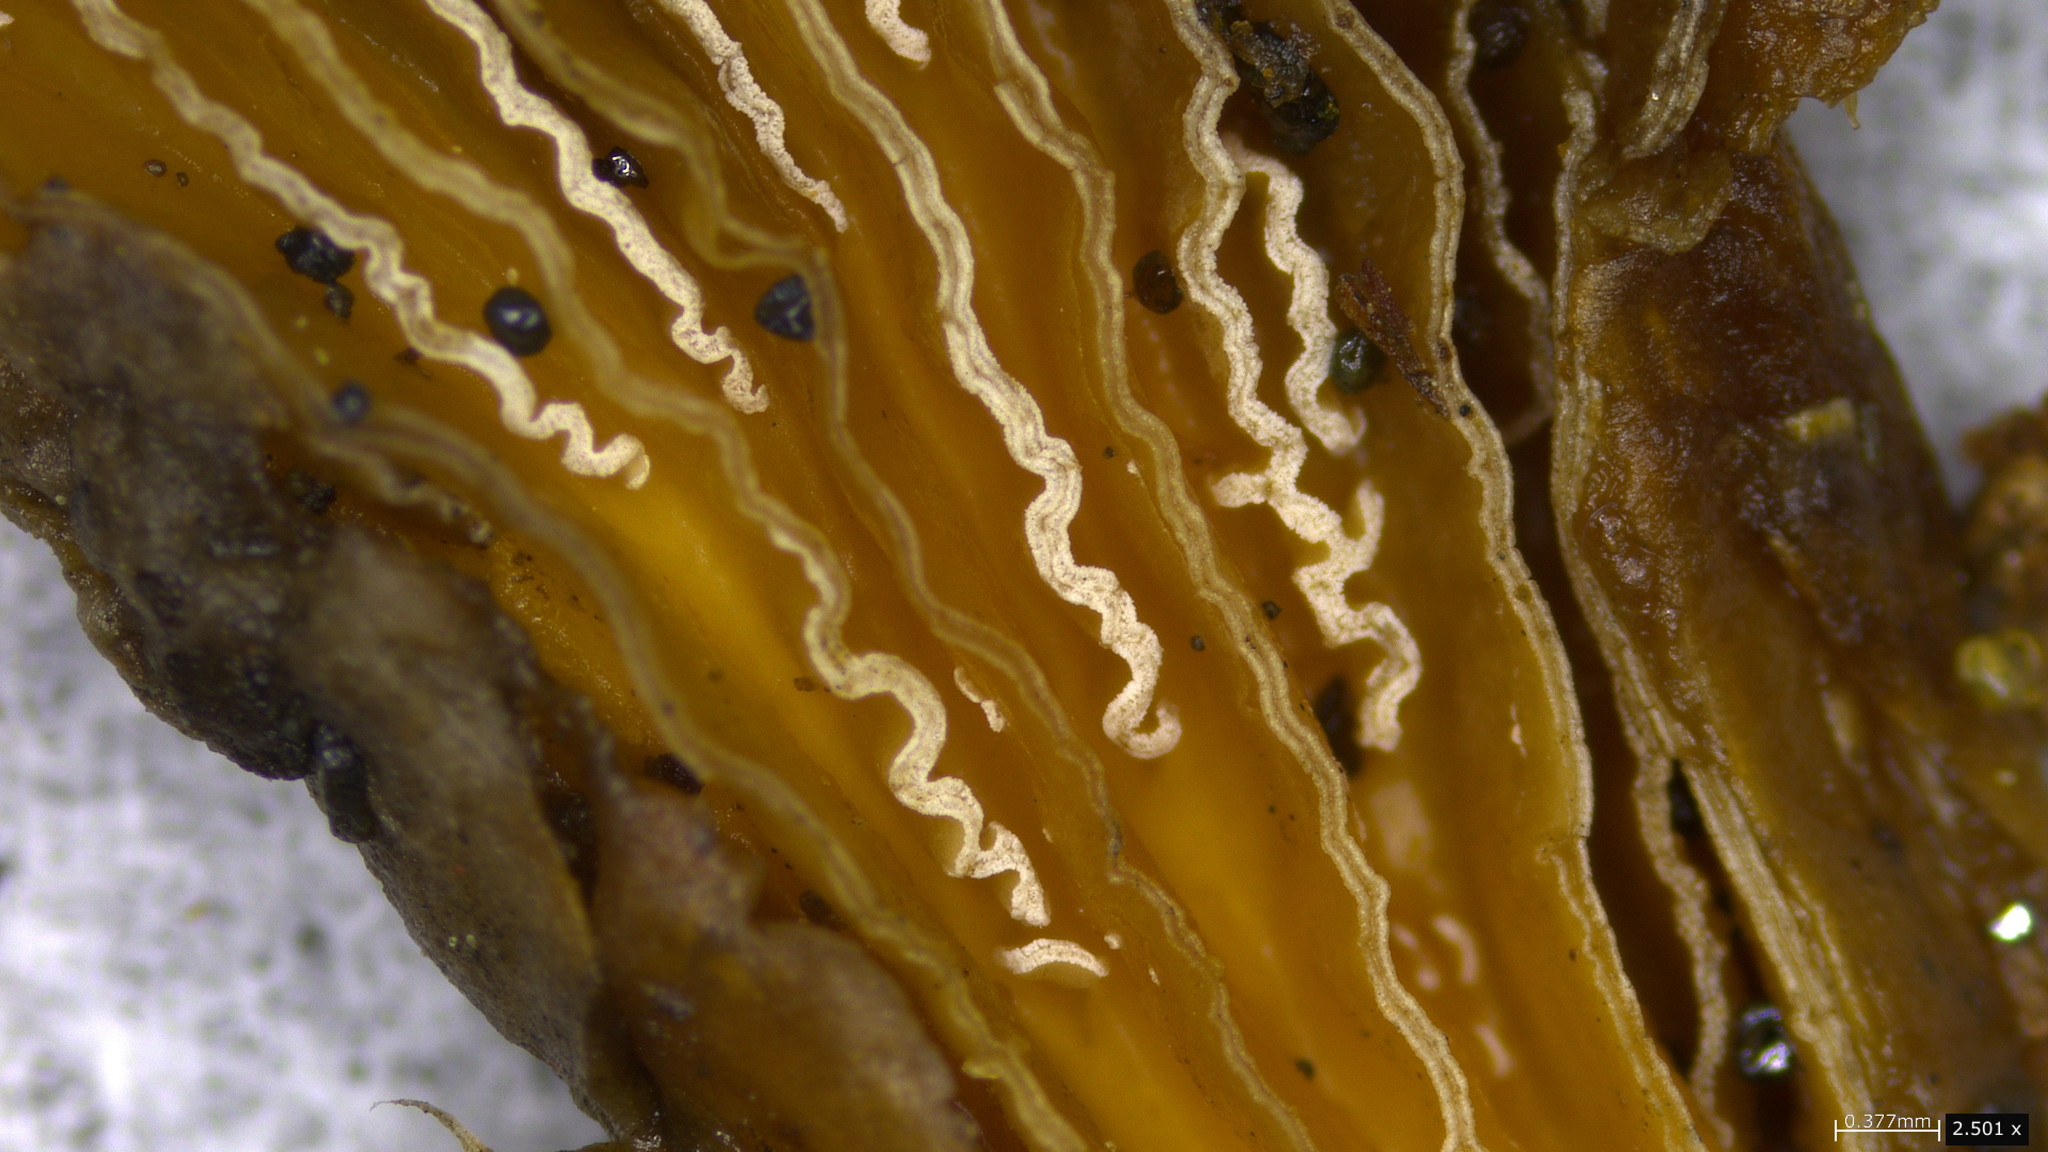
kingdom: Fungi
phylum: Basidiomycota
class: Agaricomycetes
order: Agaricales
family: Schizophyllaceae
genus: Schizophyllum
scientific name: Schizophyllum commune
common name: Common porecrust
